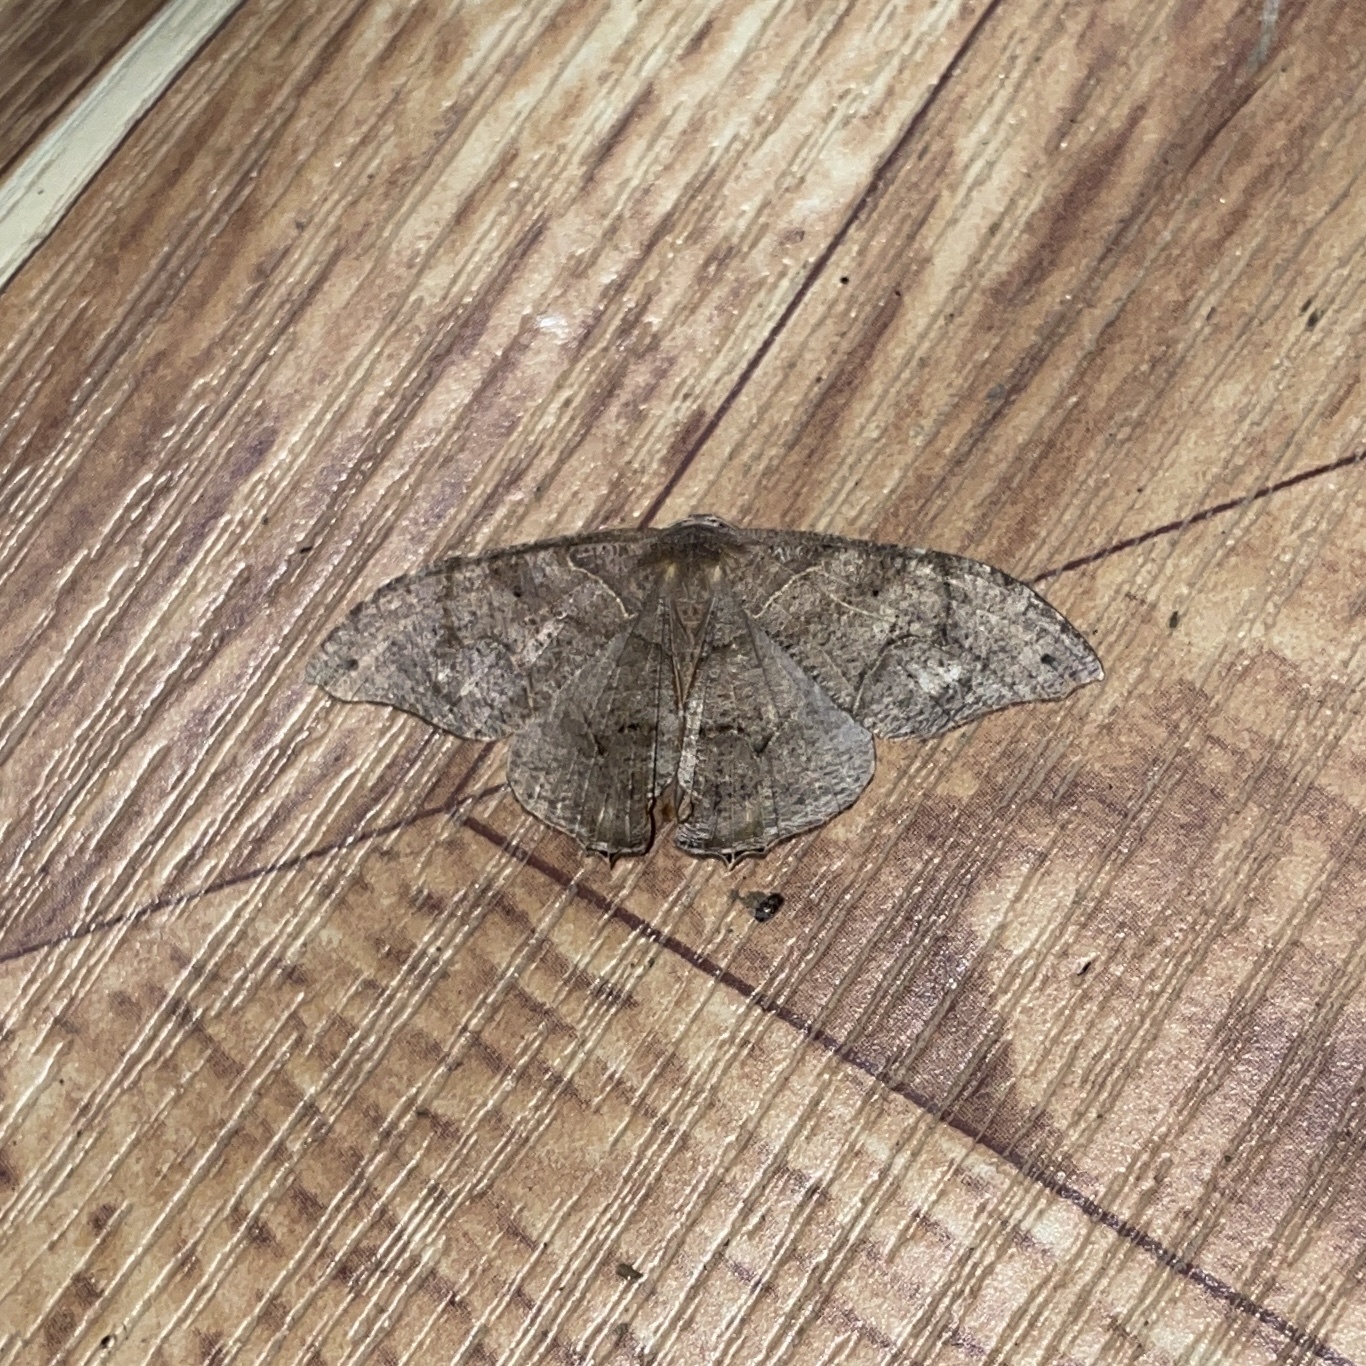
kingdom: Animalia
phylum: Arthropoda
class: Insecta
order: Lepidoptera
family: Uraniidae
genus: Syngria
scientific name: Syngria druidaria
